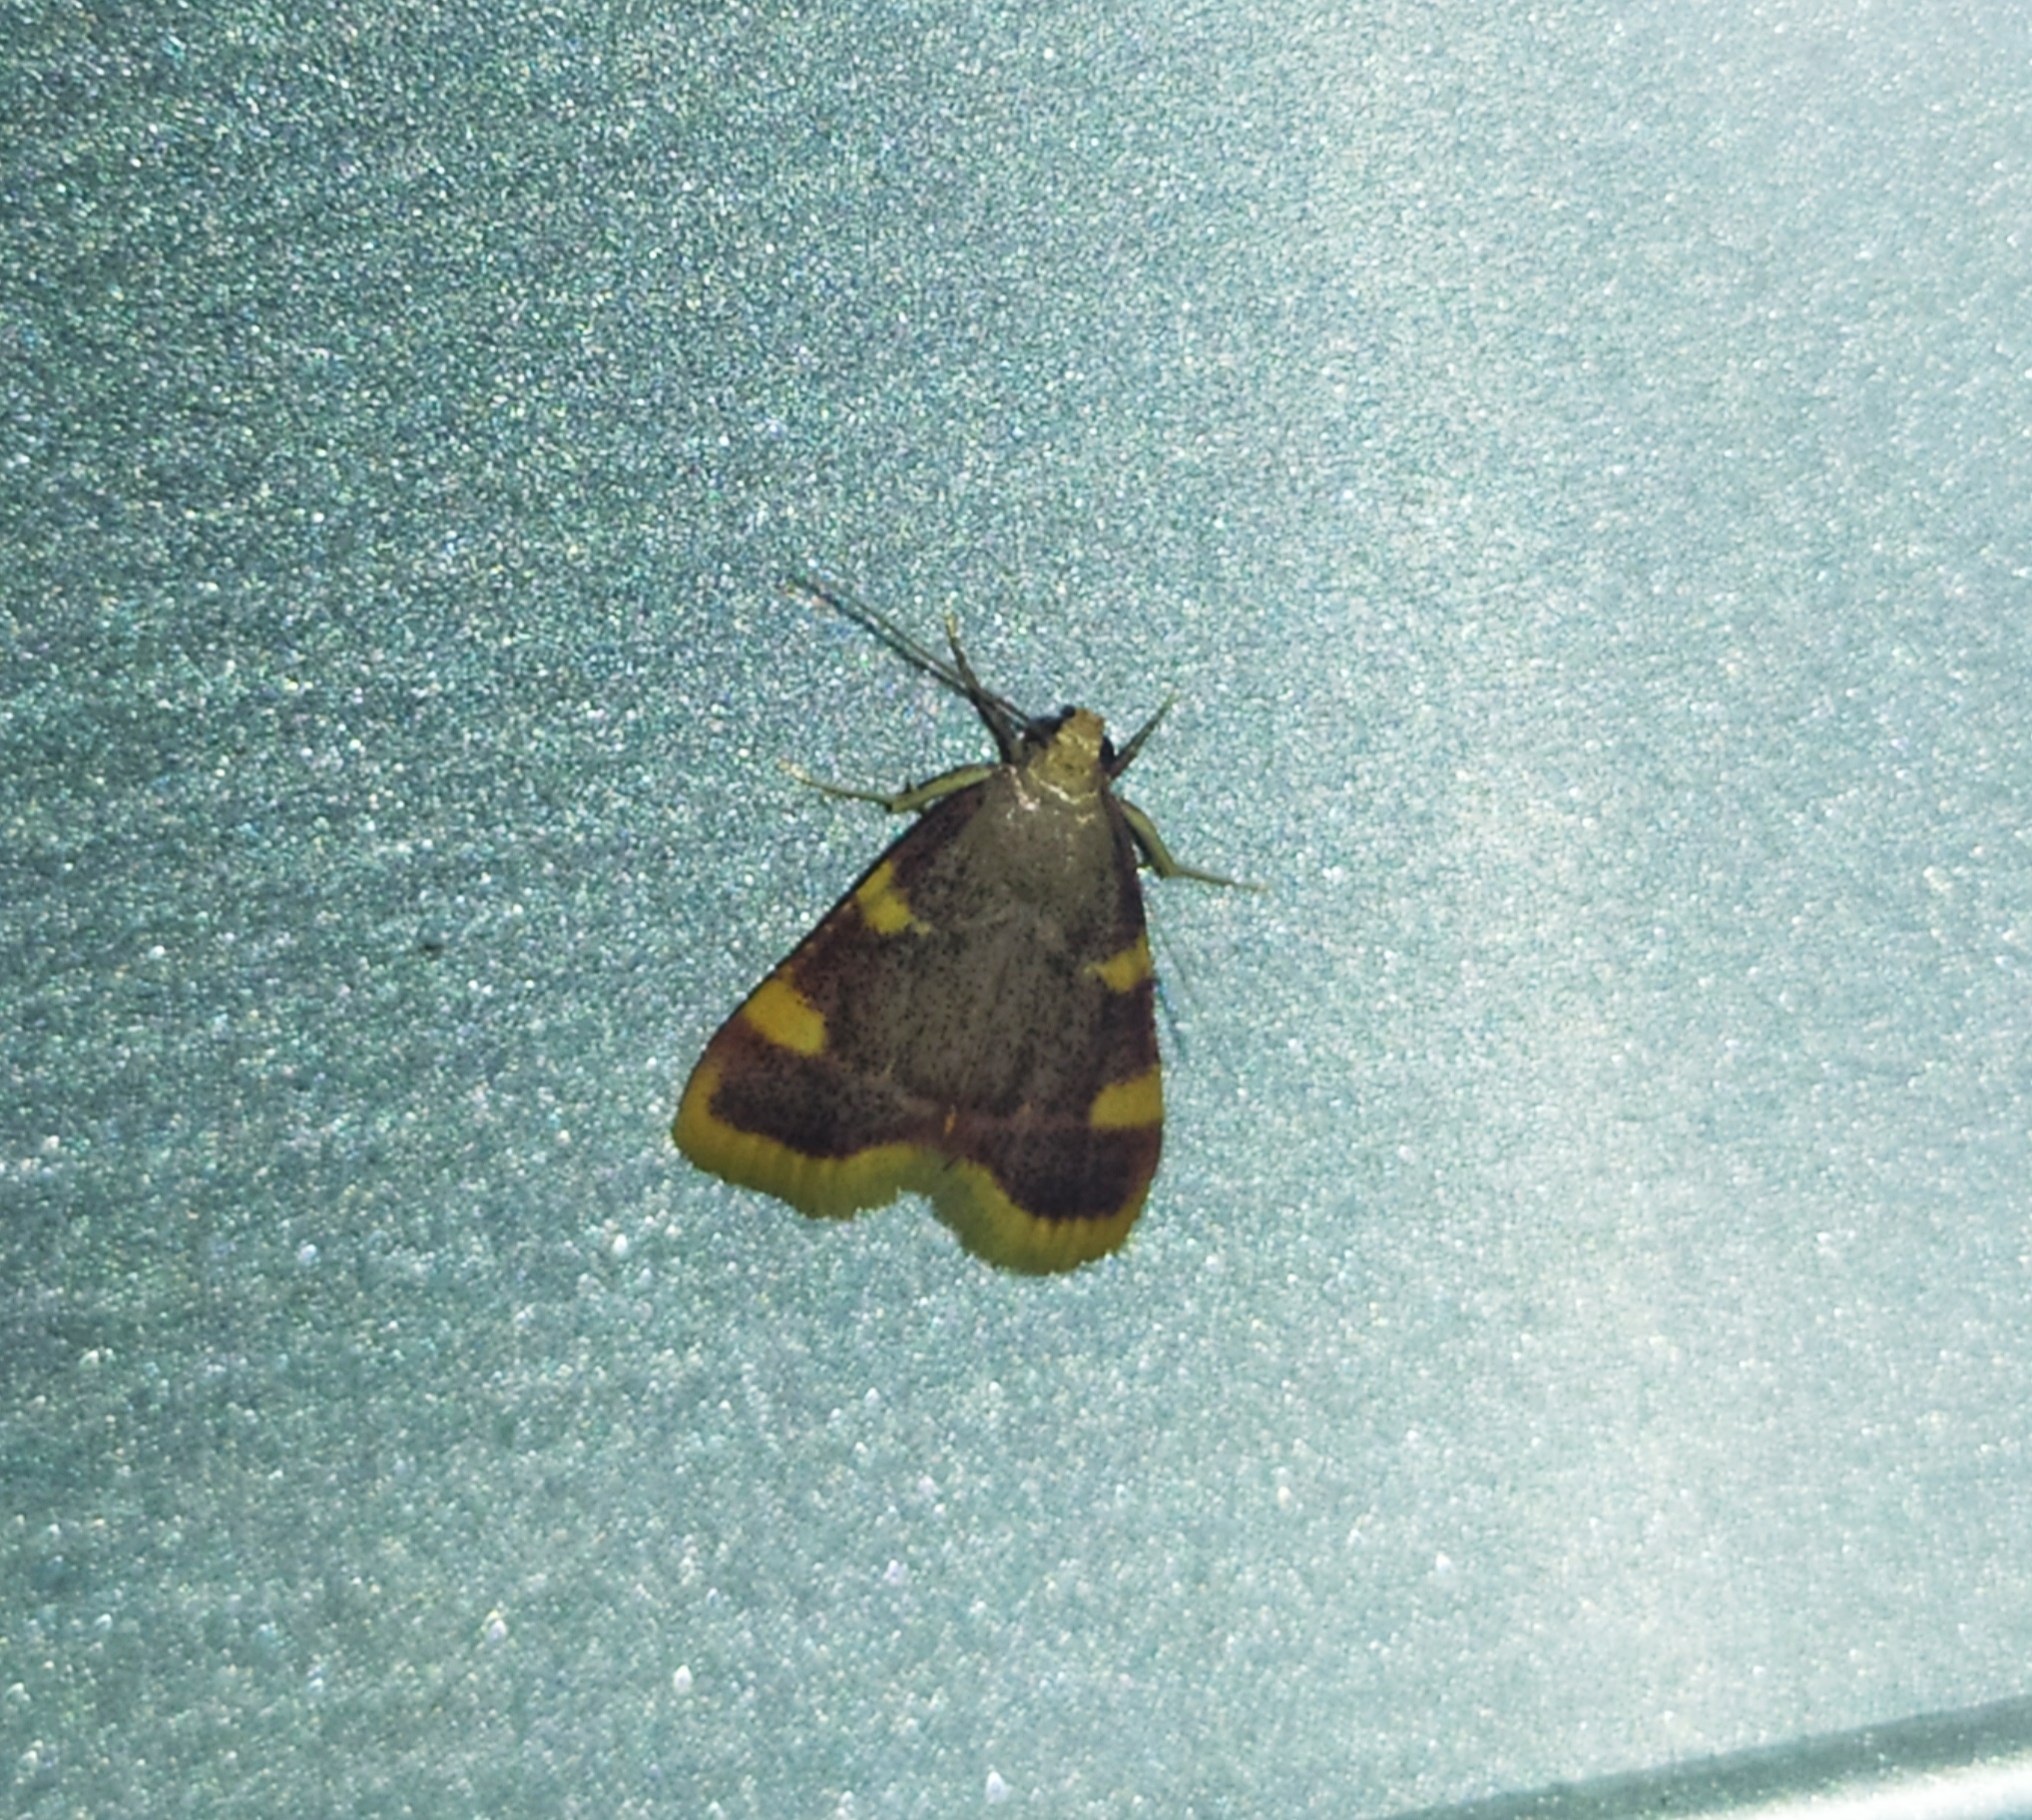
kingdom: Animalia
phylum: Arthropoda
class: Insecta
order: Lepidoptera
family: Pyralidae
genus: Hypsopygia
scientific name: Hypsopygia costalis
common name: Gold triangle
